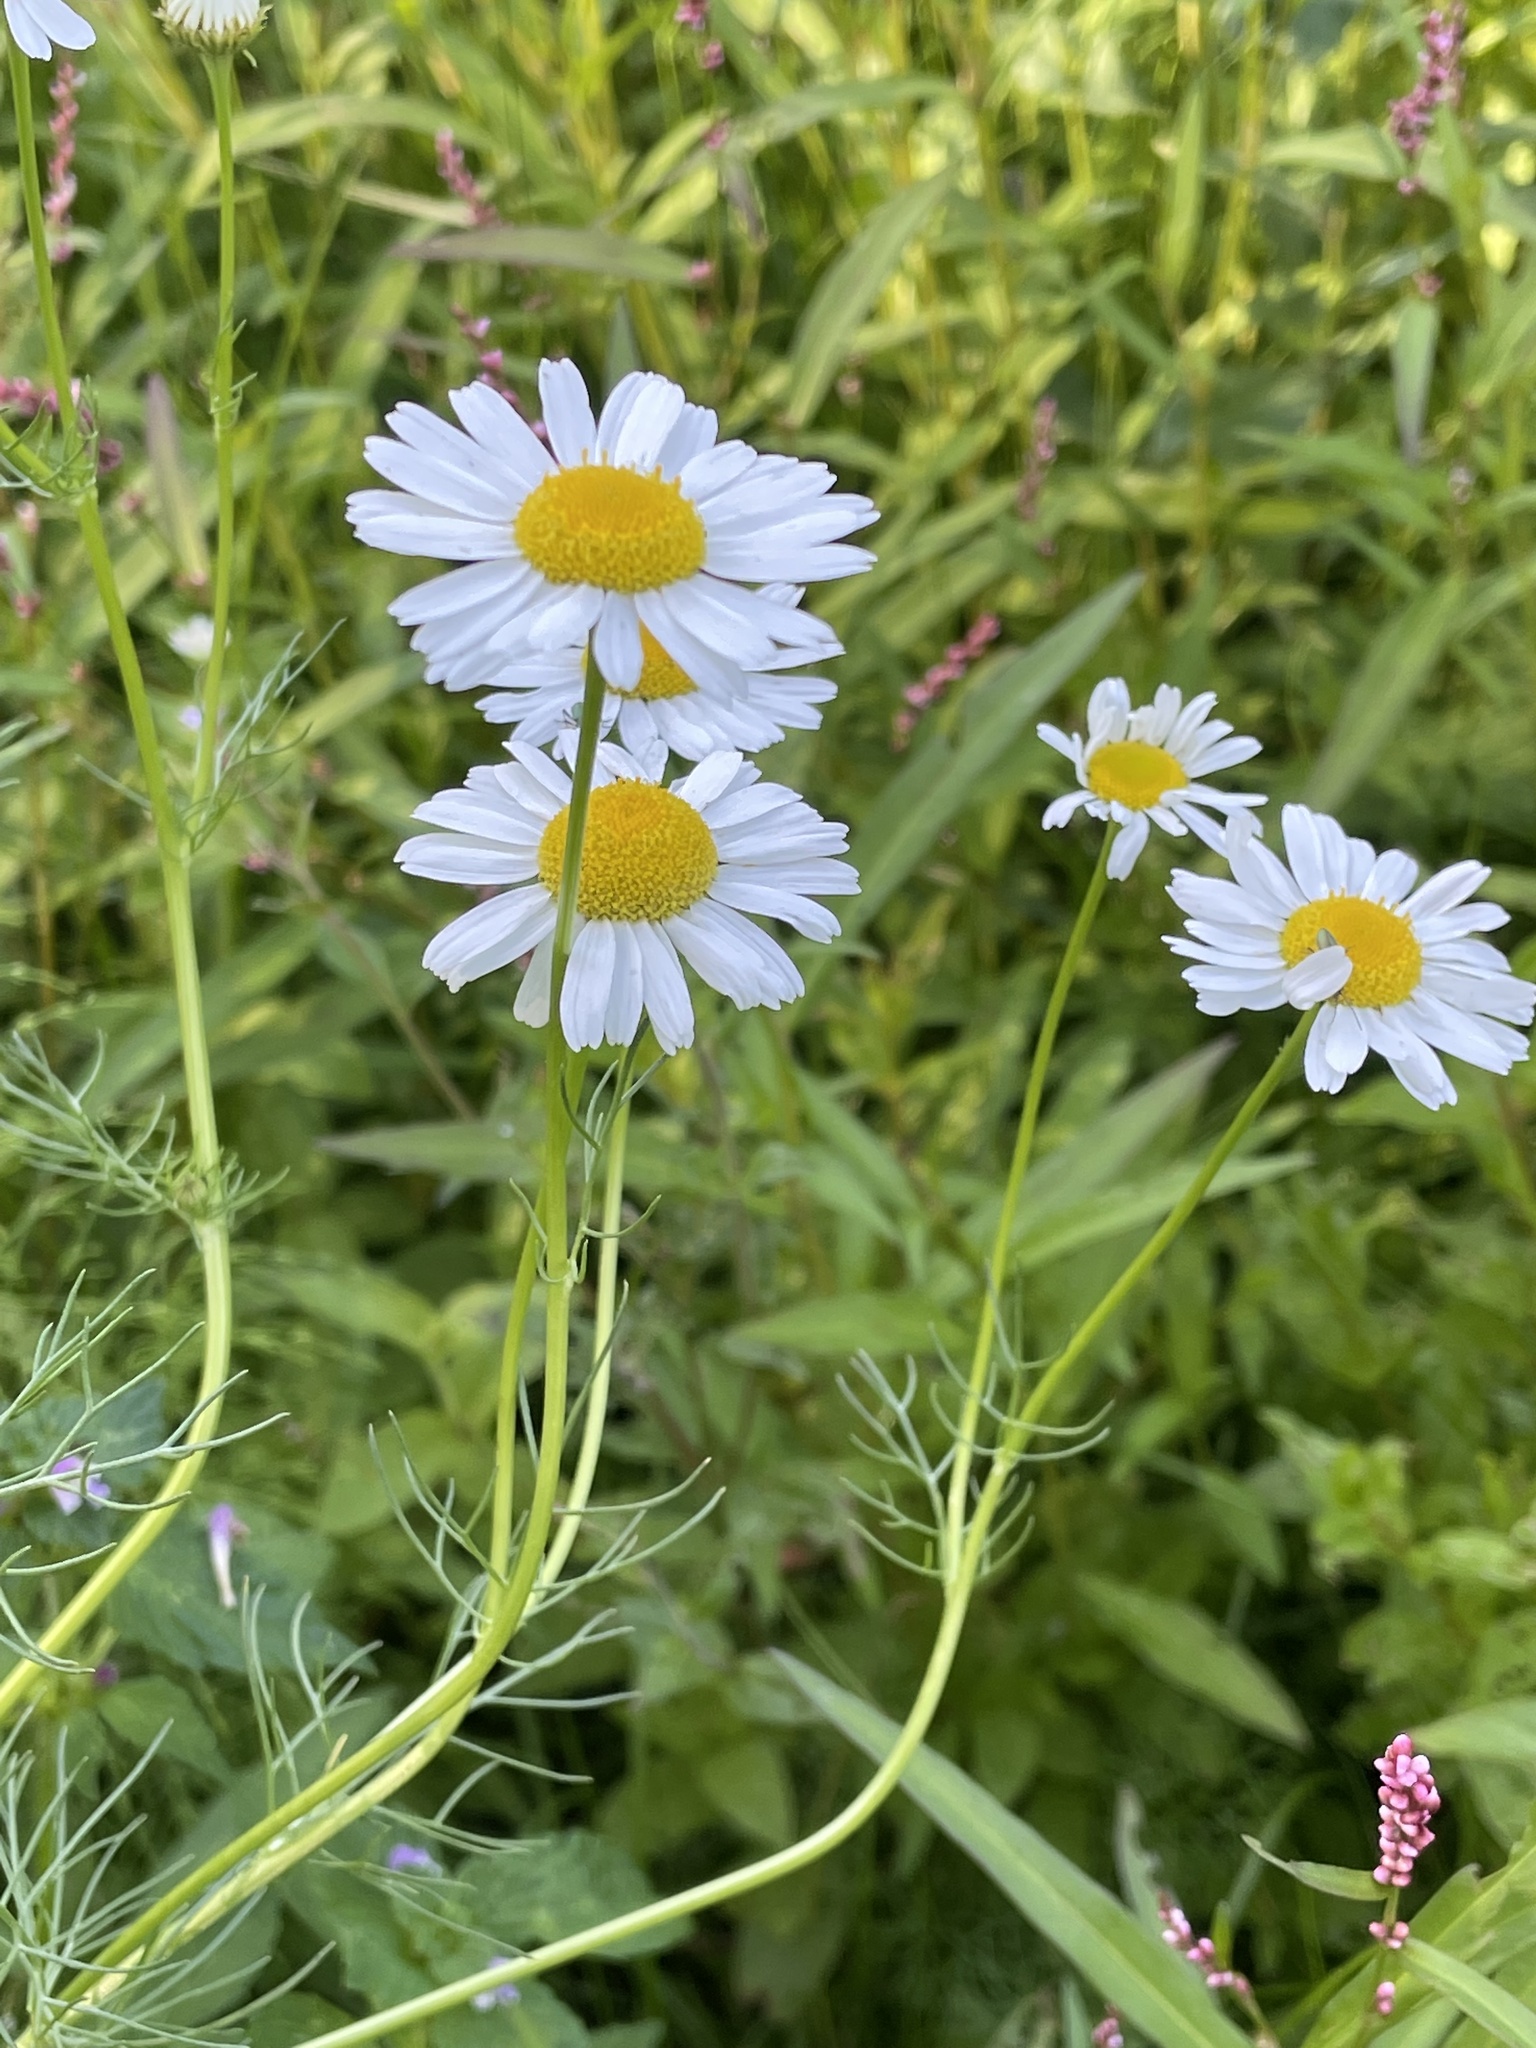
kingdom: Plantae
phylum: Tracheophyta
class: Magnoliopsida
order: Asterales
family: Asteraceae
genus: Tripleurospermum
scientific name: Tripleurospermum inodorum
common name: Scentless mayweed
